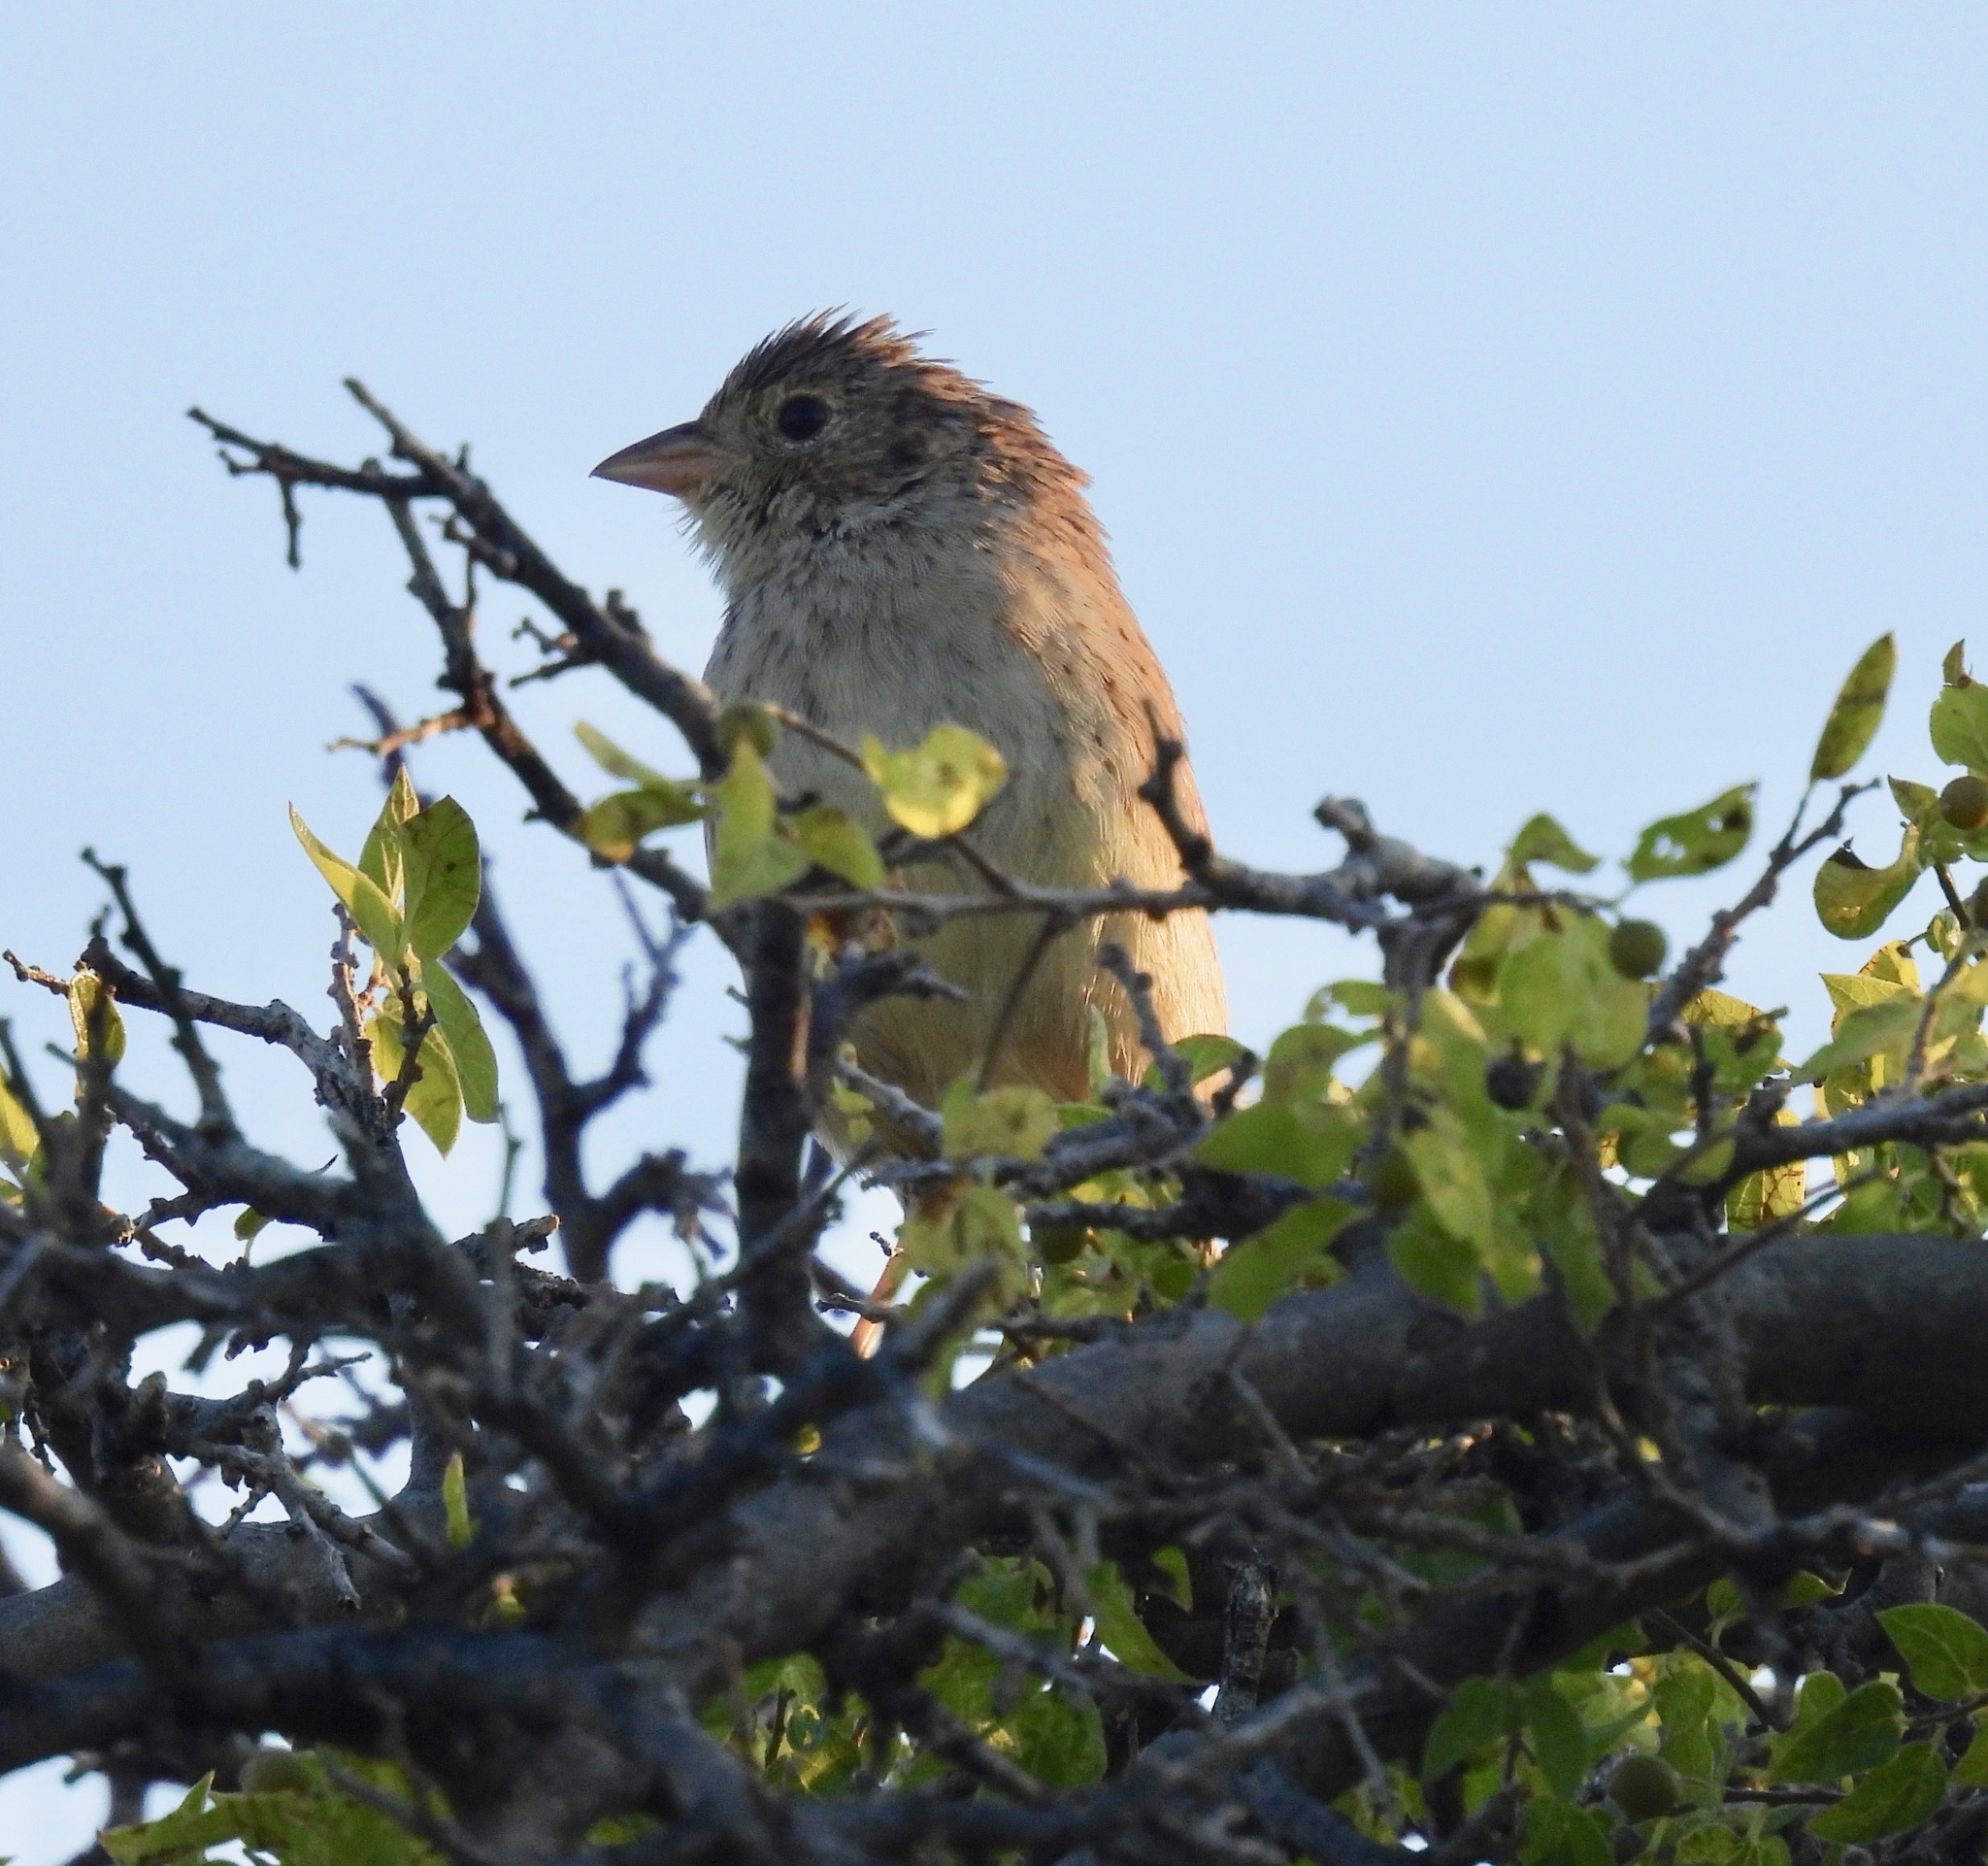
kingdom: Animalia
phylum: Chordata
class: Aves
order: Passeriformes
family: Passerellidae
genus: Peucaea
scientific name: Peucaea cassinii
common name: Cassin's sparrow
